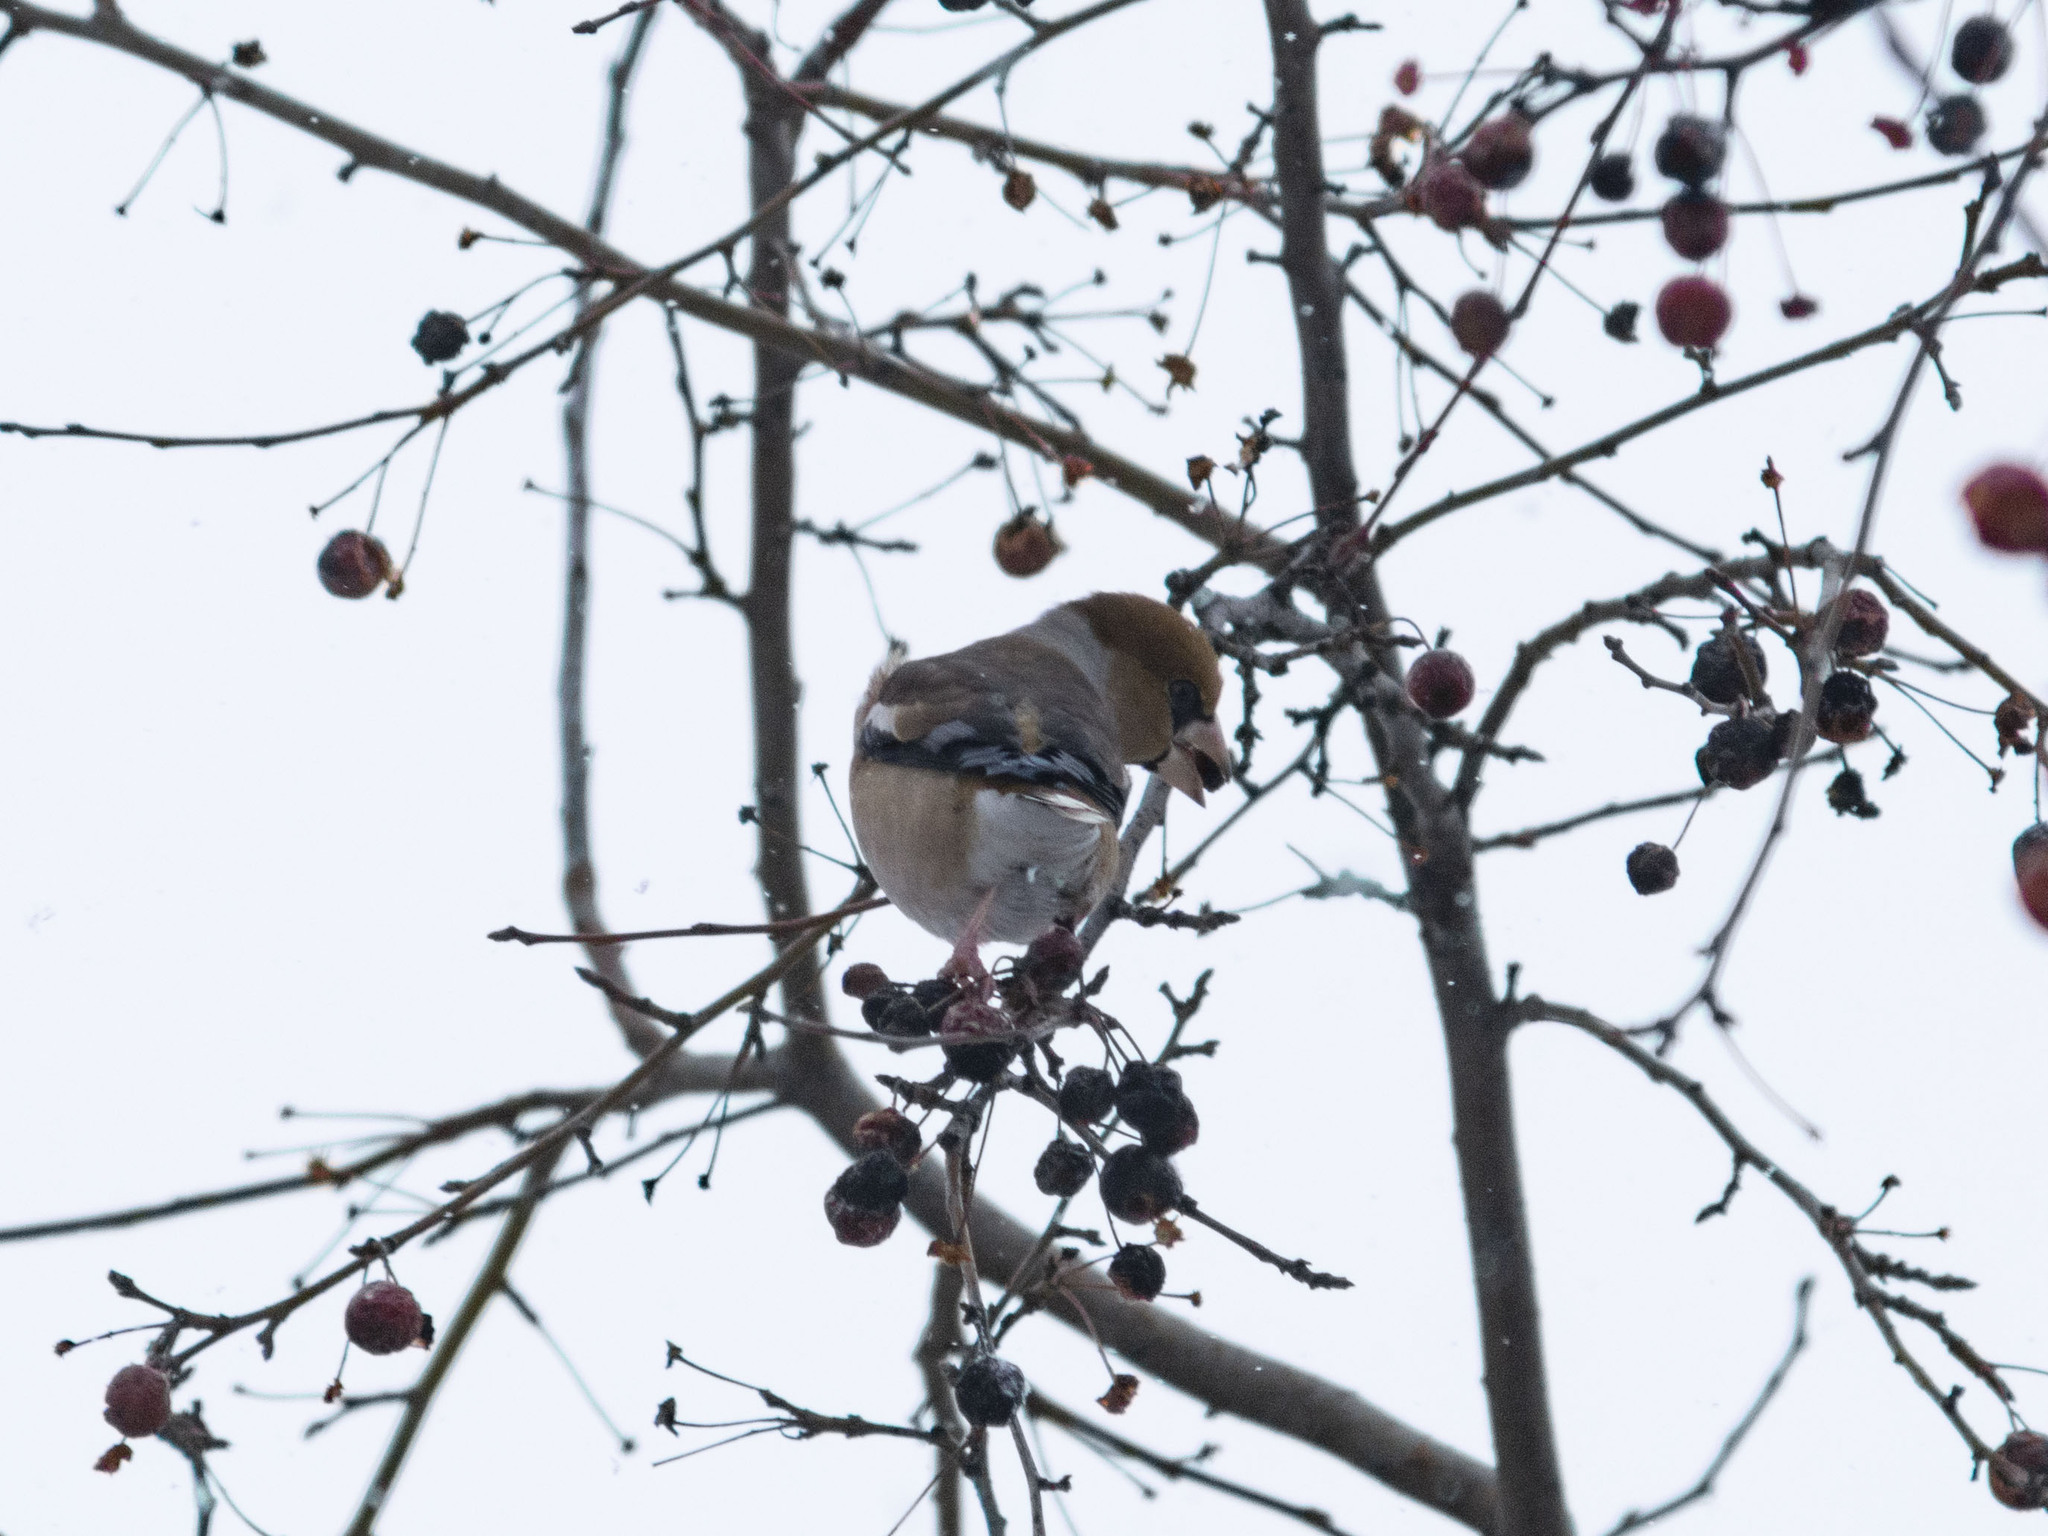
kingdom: Animalia
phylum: Chordata
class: Aves
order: Passeriformes
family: Fringillidae
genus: Coccothraustes
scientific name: Coccothraustes coccothraustes
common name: Hawfinch
